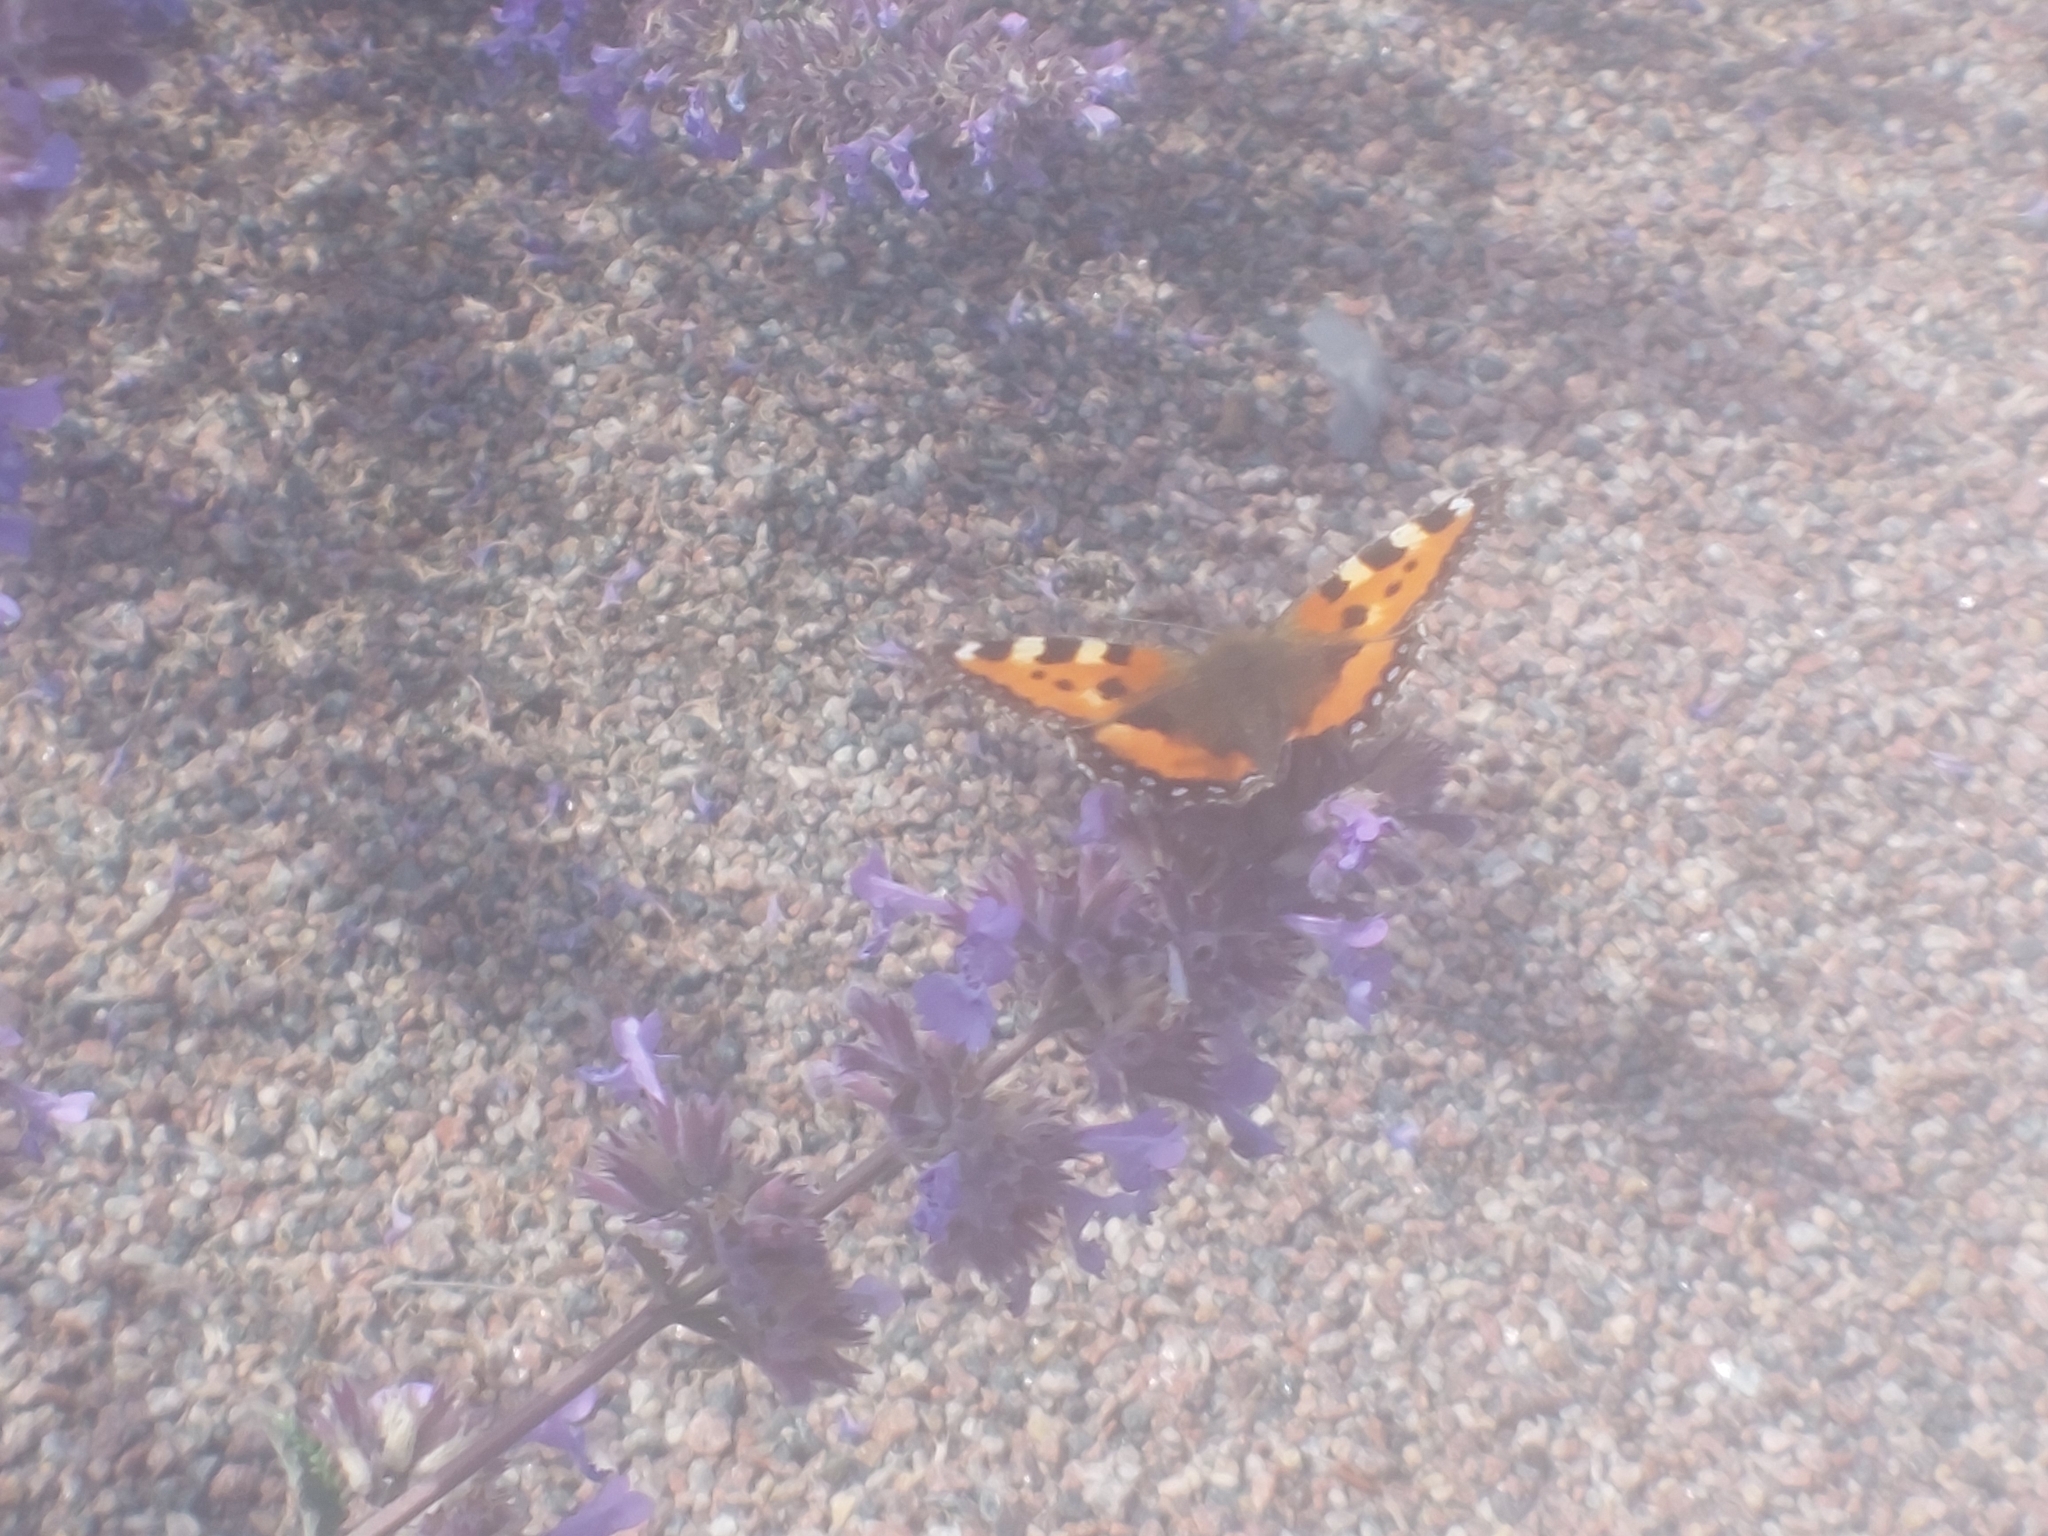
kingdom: Animalia
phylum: Arthropoda
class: Insecta
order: Lepidoptera
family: Nymphalidae
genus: Aglais
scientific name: Aglais urticae
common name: Small tortoiseshell
